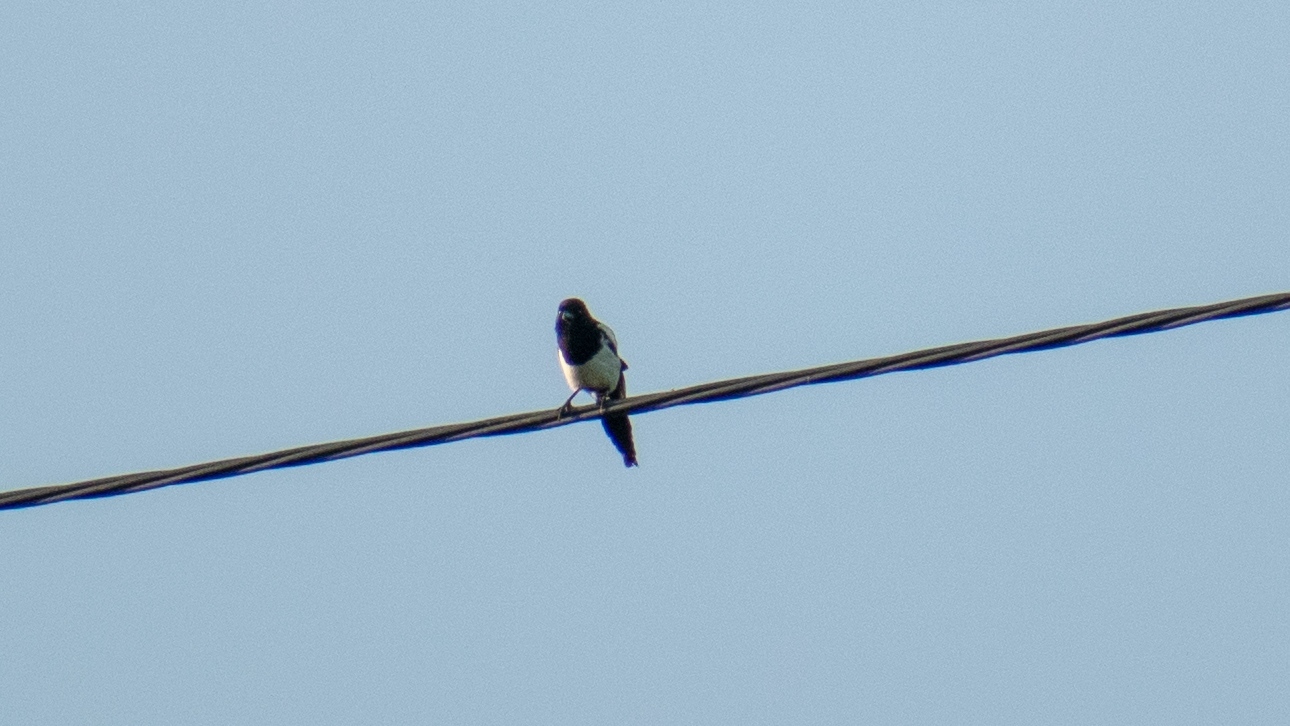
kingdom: Animalia
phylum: Chordata
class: Aves
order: Passeriformes
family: Corvidae
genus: Pica
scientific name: Pica pica
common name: Eurasian magpie
